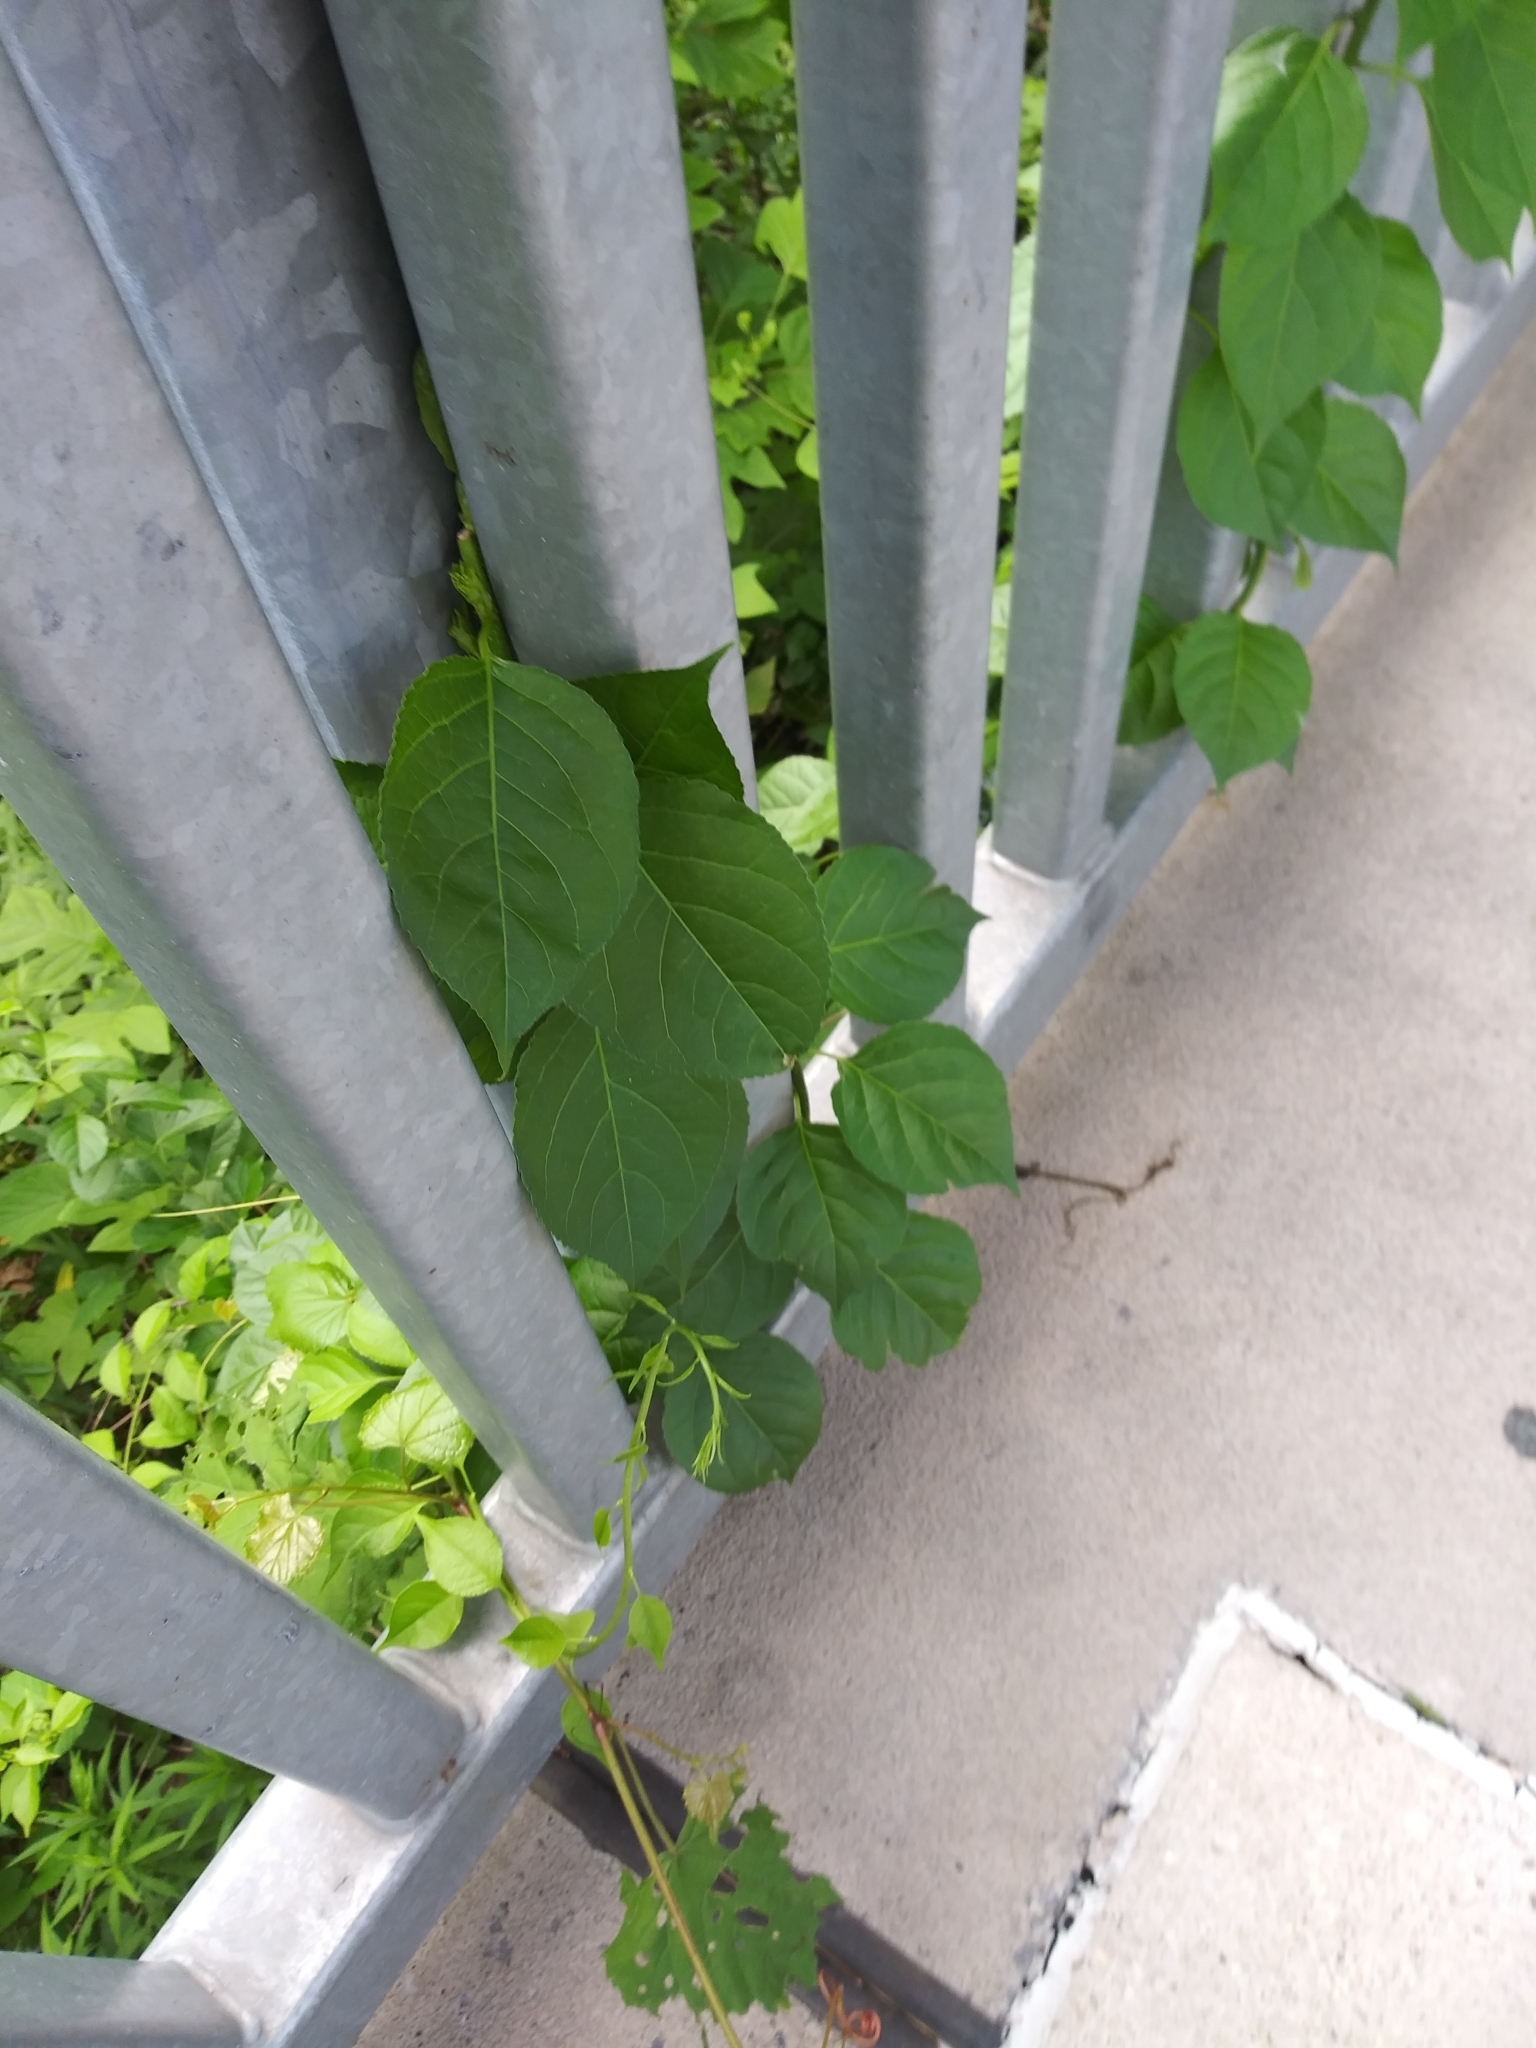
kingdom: Plantae
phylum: Tracheophyta
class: Magnoliopsida
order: Celastrales
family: Celastraceae
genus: Celastrus
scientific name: Celastrus orbiculatus
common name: Oriental bittersweet
